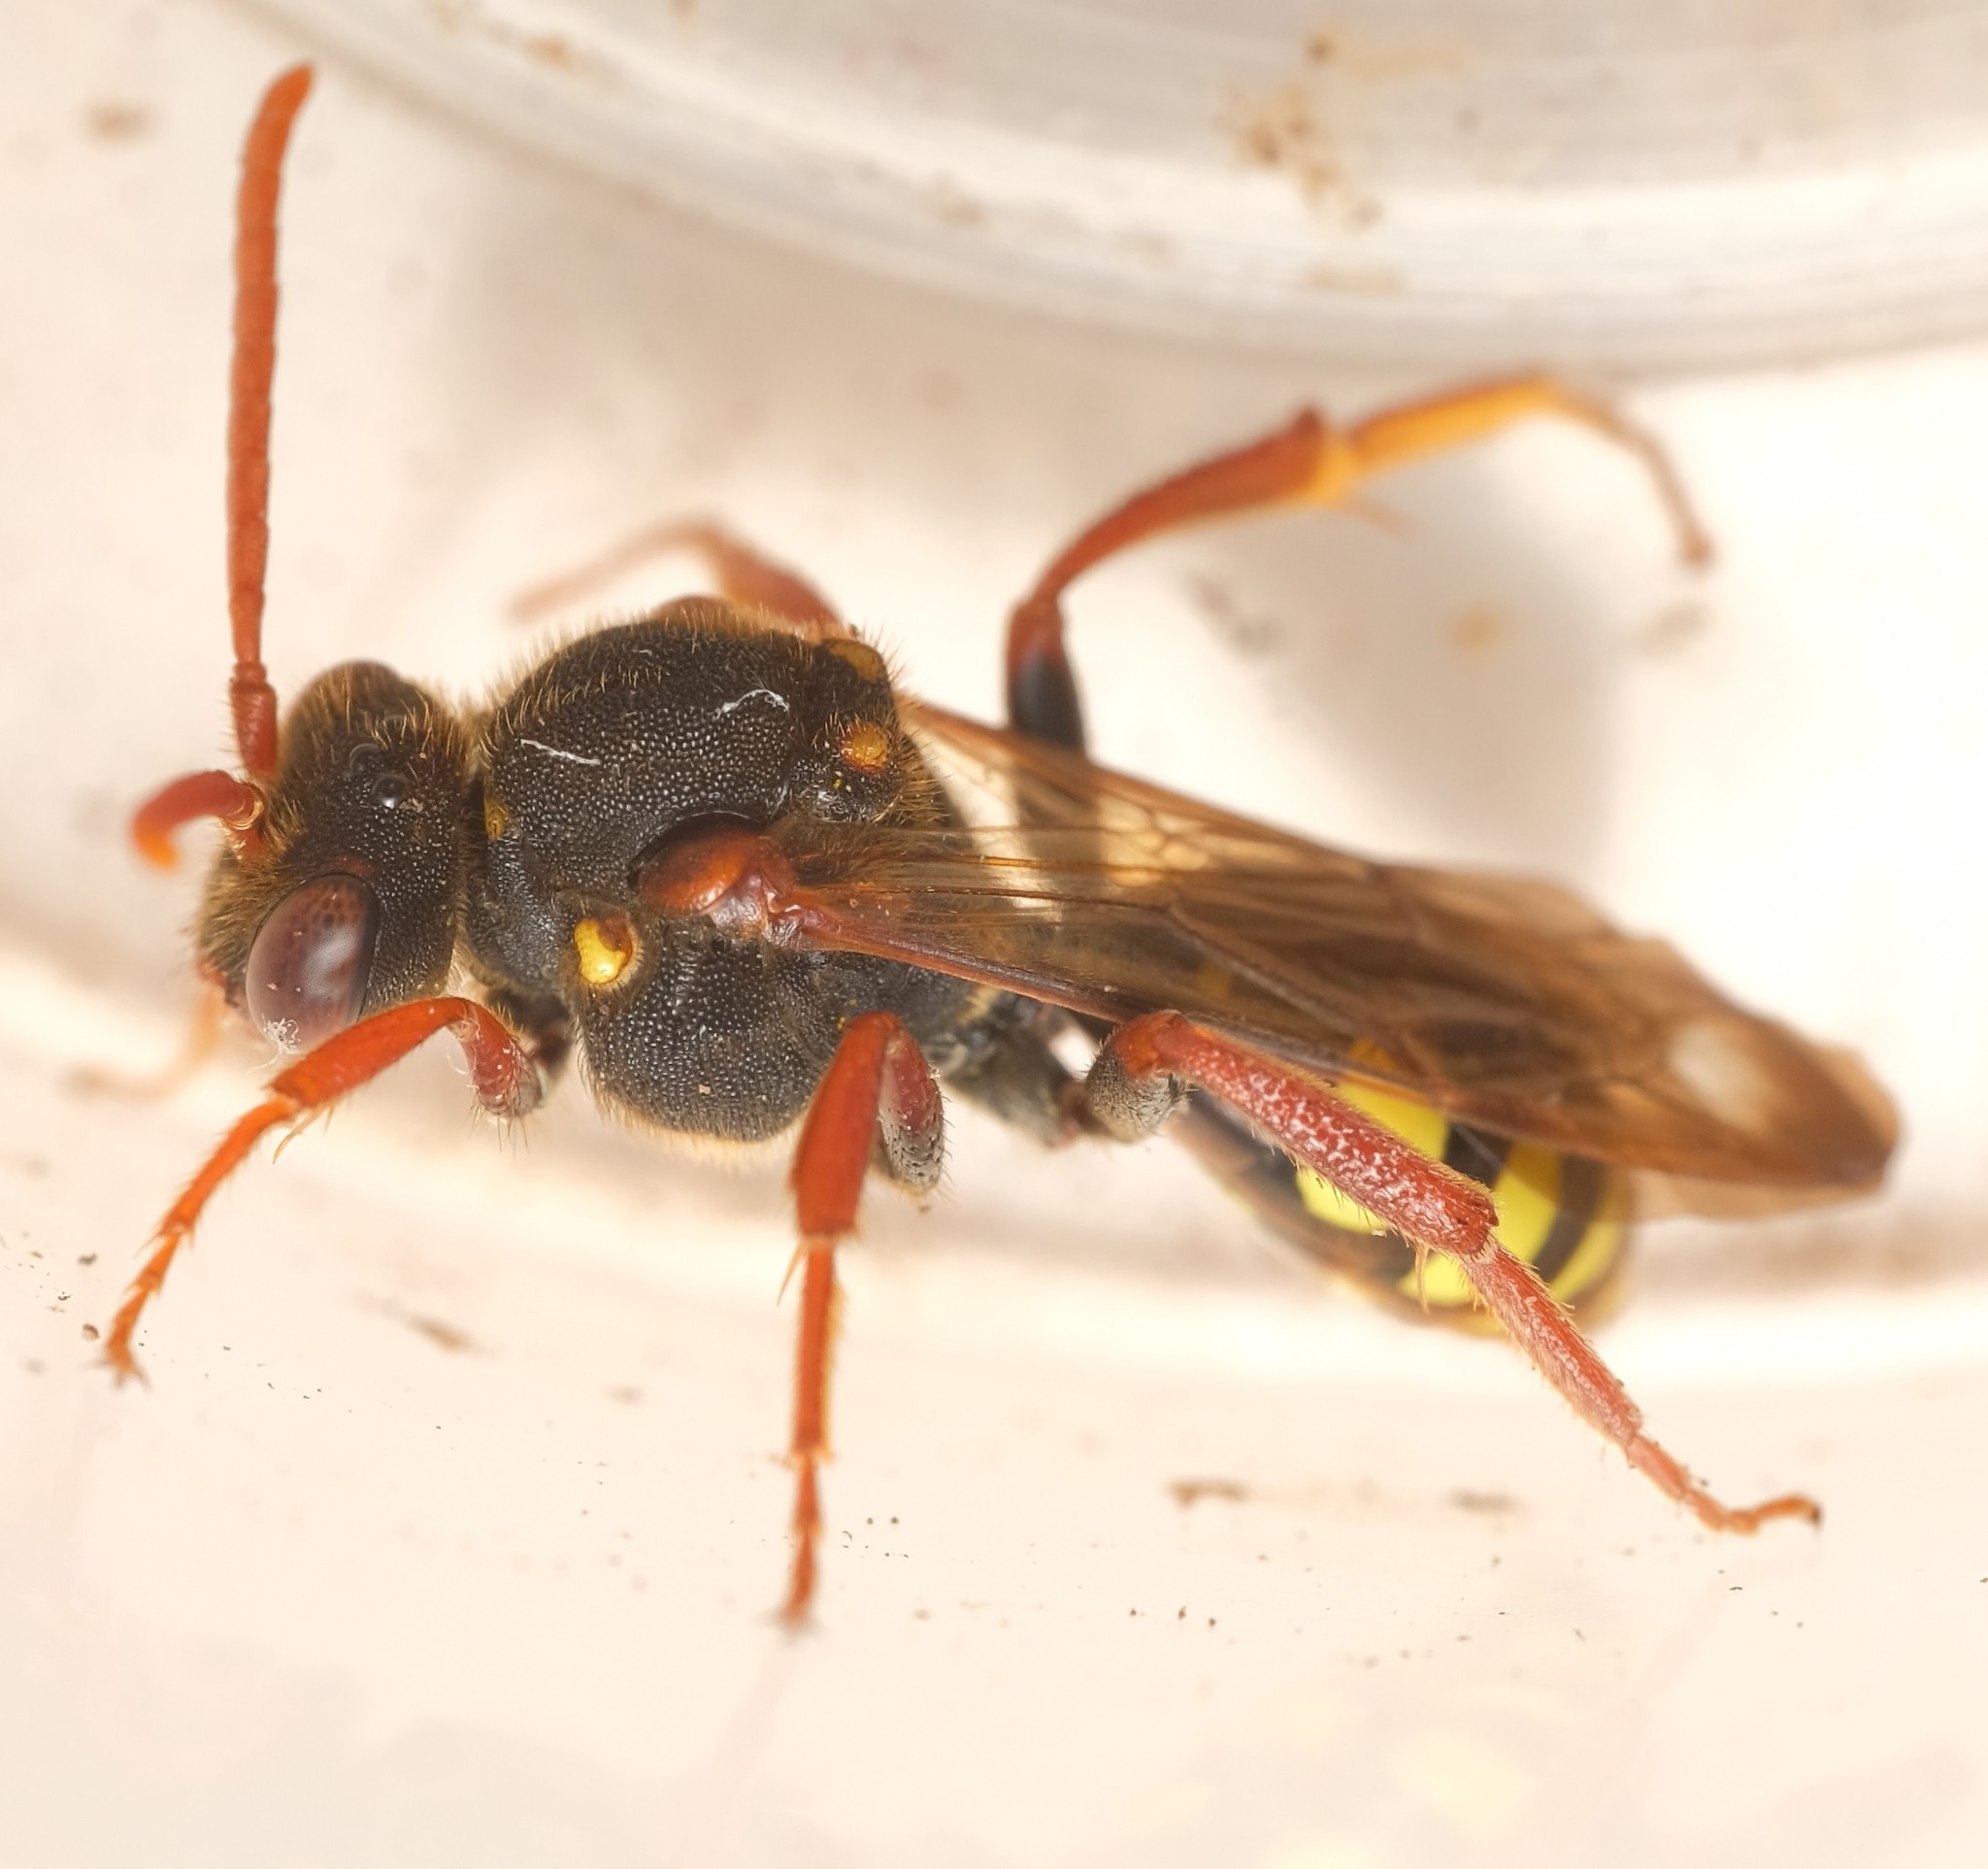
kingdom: Animalia
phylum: Arthropoda
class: Insecta
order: Hymenoptera
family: Apidae
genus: Nomada
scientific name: Nomada marshamella
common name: Marsham's nomad bee
